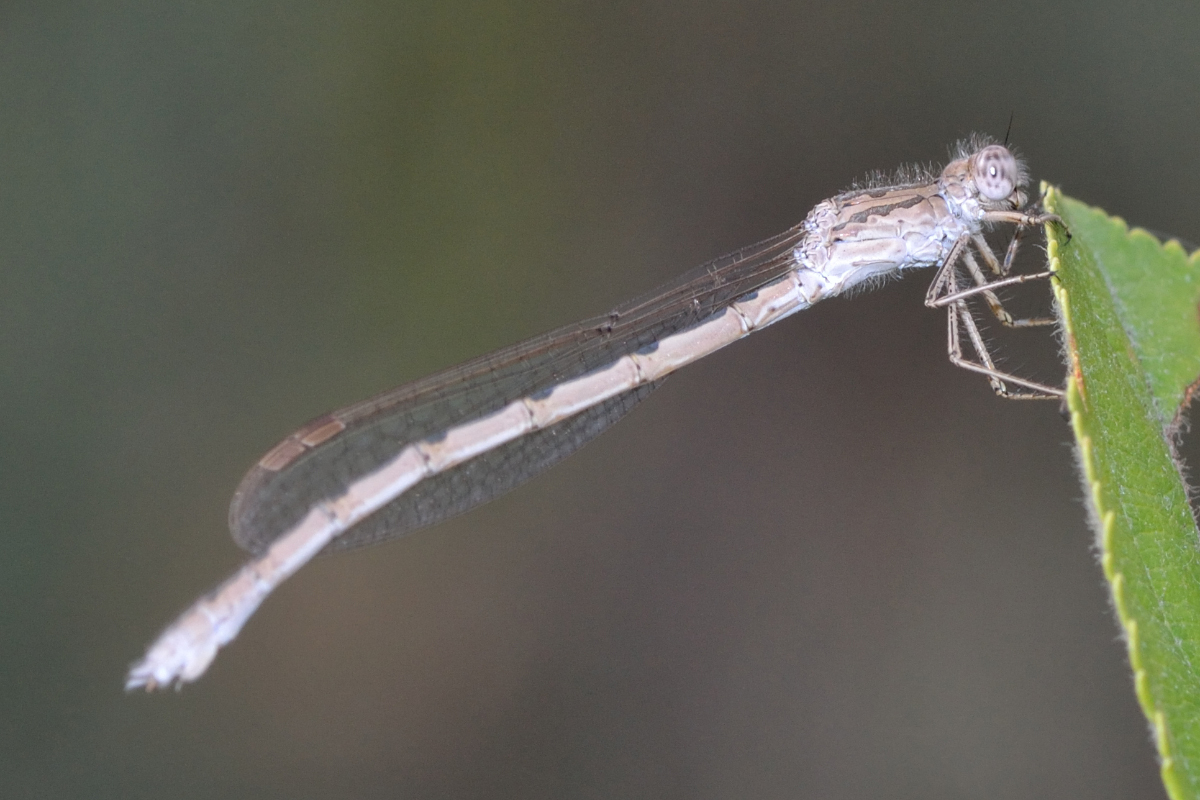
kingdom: Animalia
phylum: Arthropoda
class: Insecta
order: Odonata
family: Lestidae
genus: Sympecma
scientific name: Sympecma paedisca
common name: Siberian winter damsel
